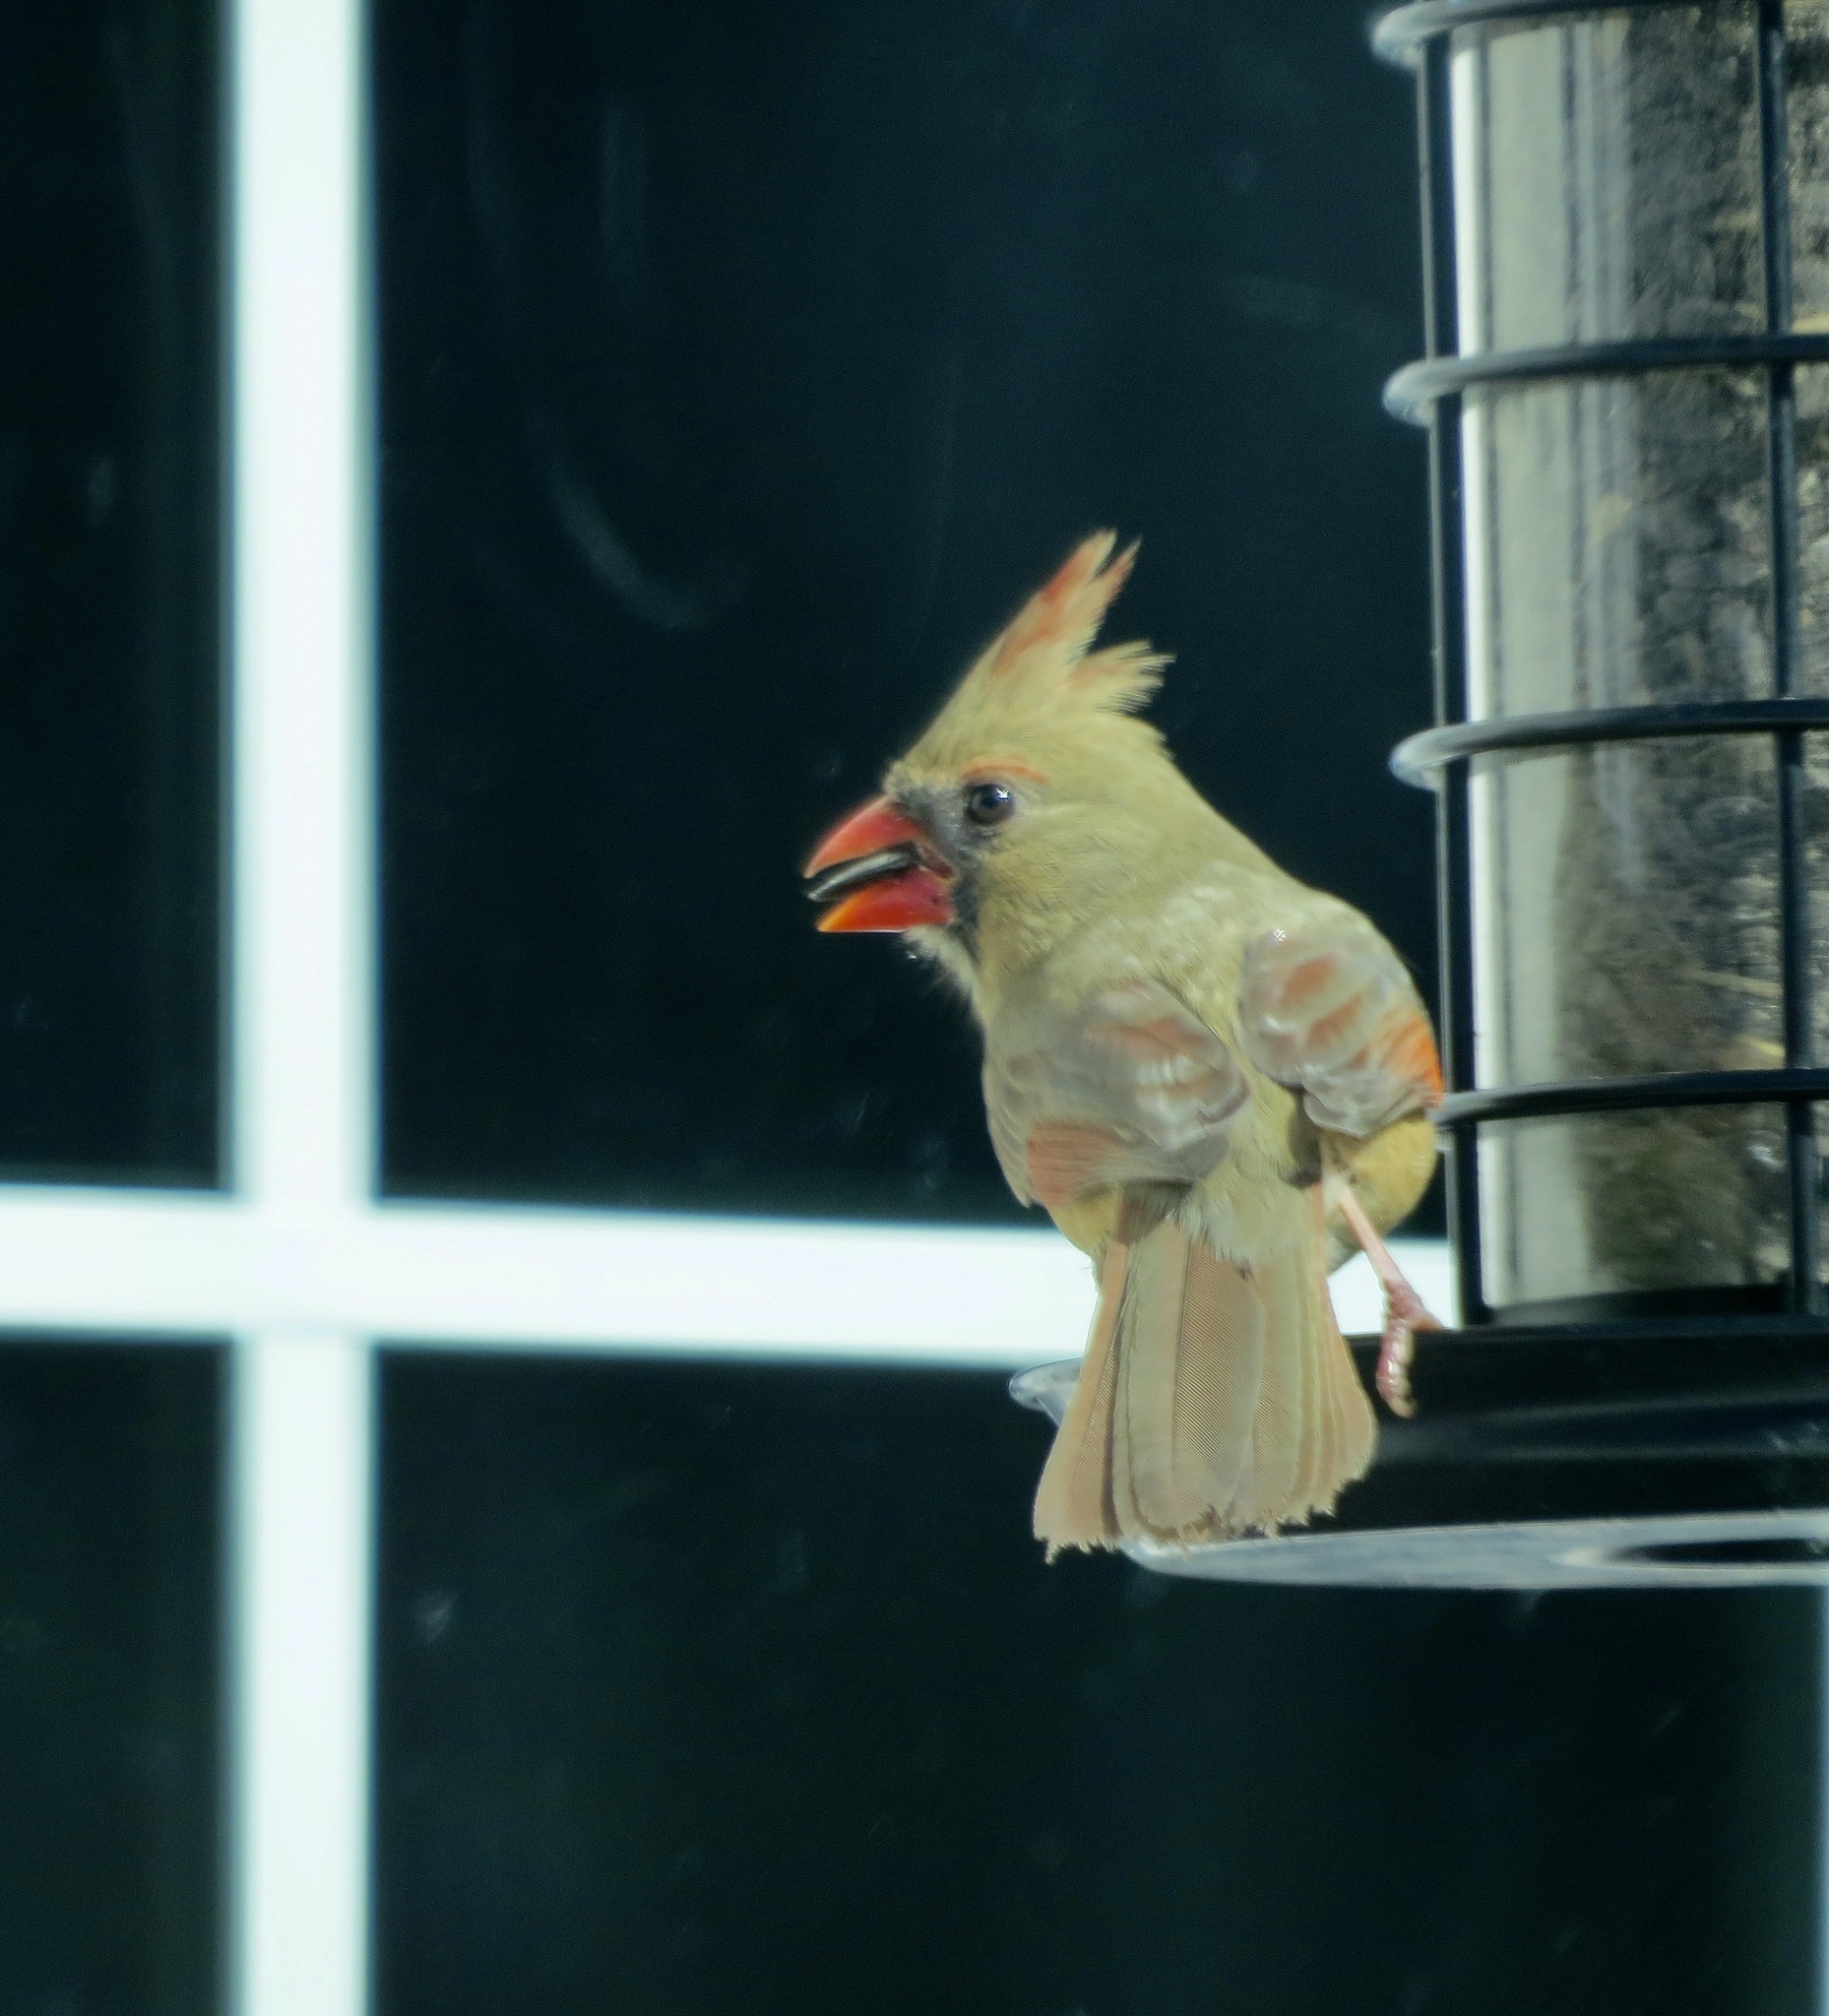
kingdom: Animalia
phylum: Chordata
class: Aves
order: Passeriformes
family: Cardinalidae
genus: Cardinalis
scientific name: Cardinalis cardinalis
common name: Northern cardinal
